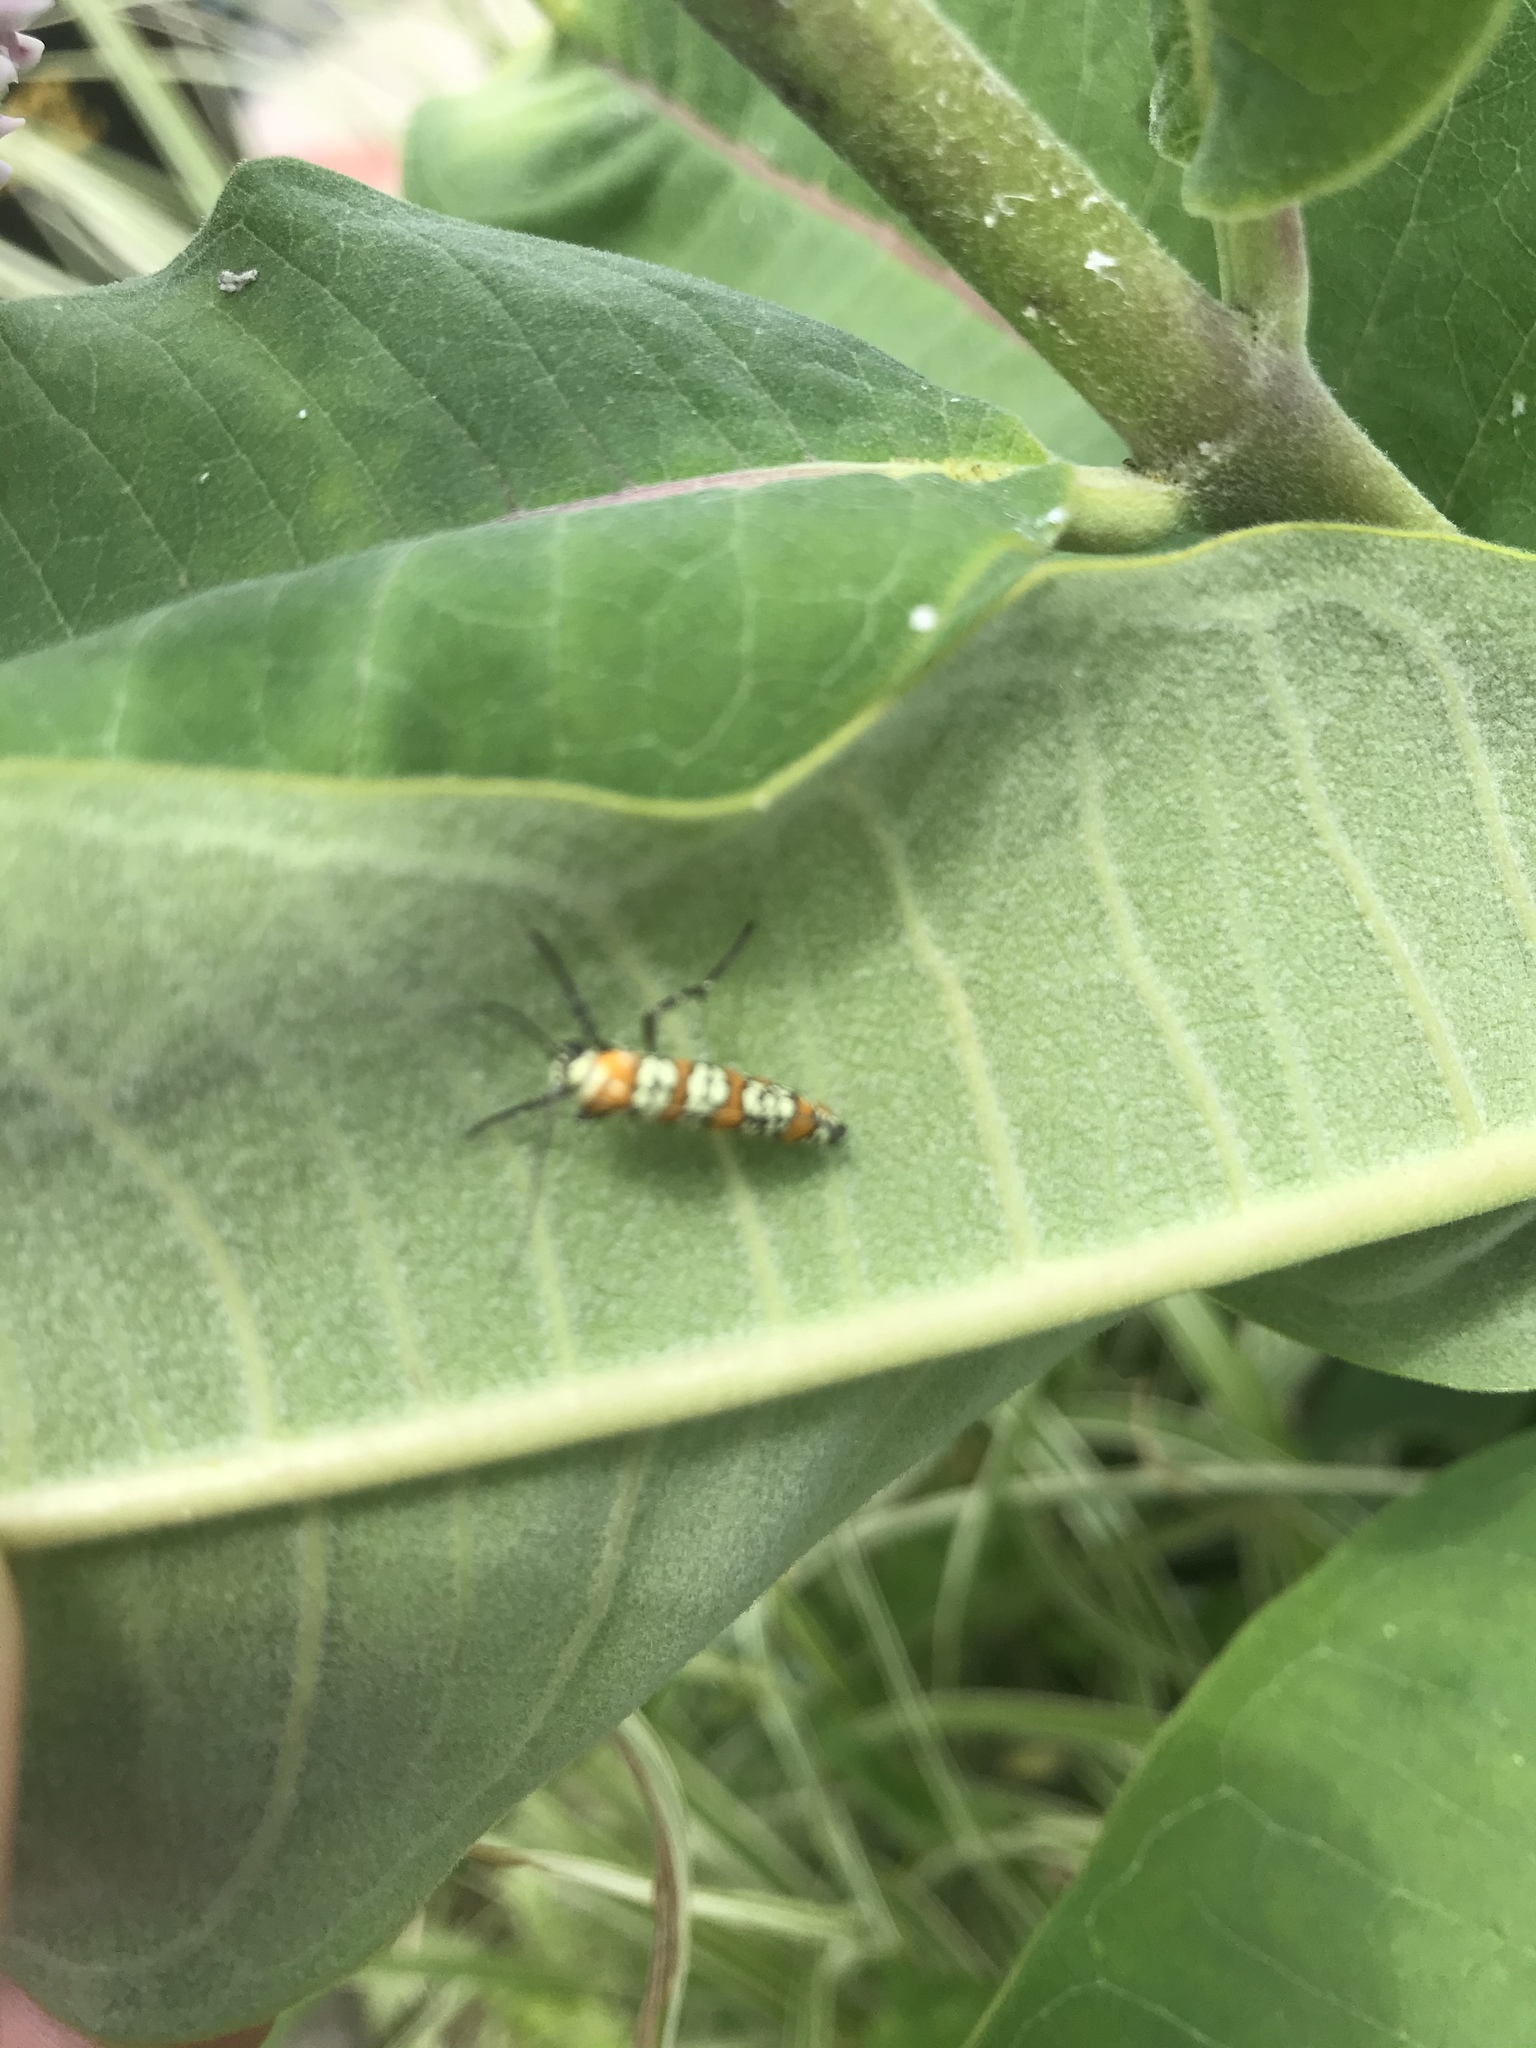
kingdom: Animalia
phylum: Arthropoda
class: Insecta
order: Lepidoptera
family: Attevidae
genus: Atteva
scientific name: Atteva punctella
